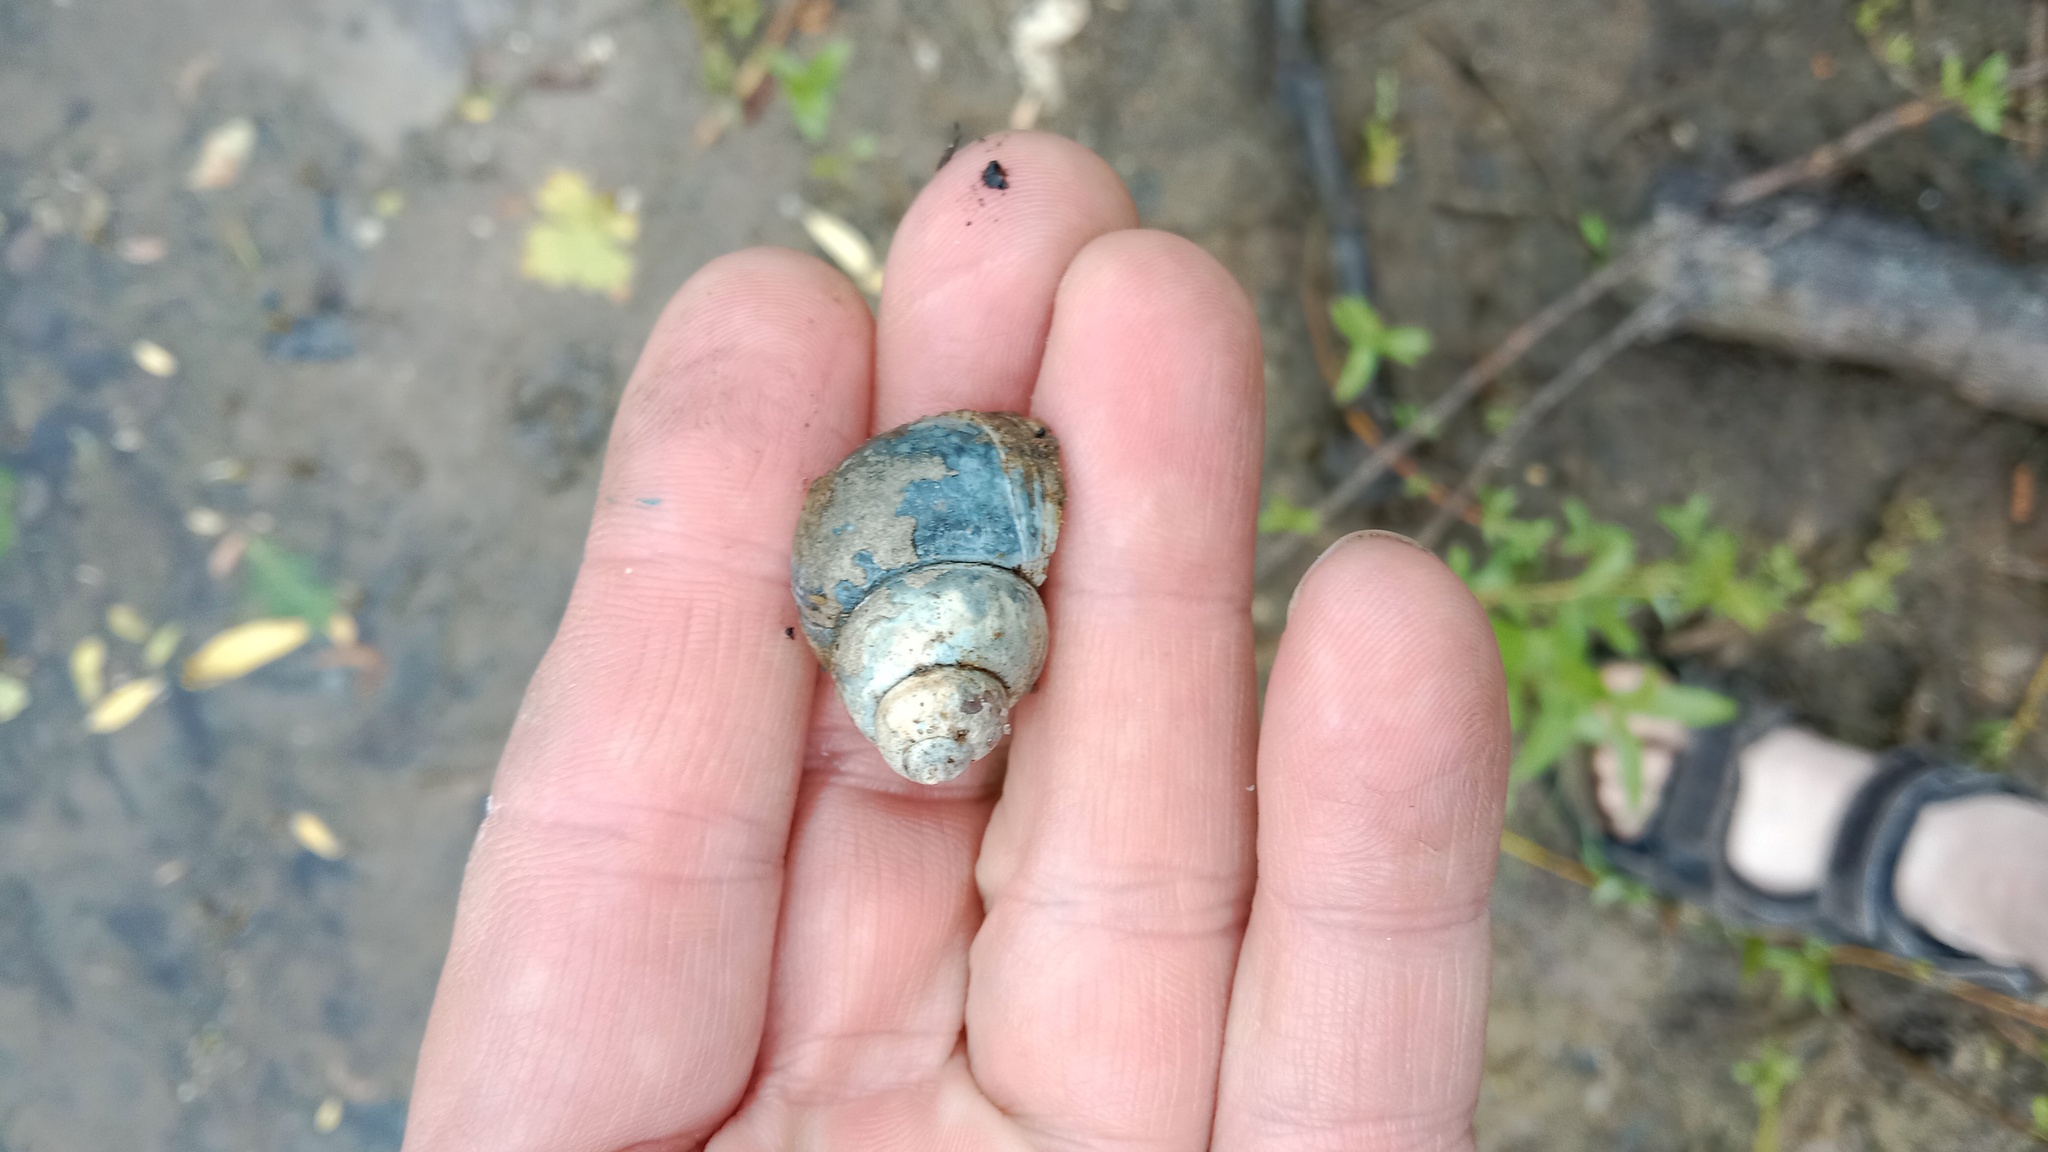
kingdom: Animalia
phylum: Mollusca
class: Gastropoda
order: Architaenioglossa
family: Viviparidae
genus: Viviparus
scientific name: Viviparus viviparus
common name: River snail
